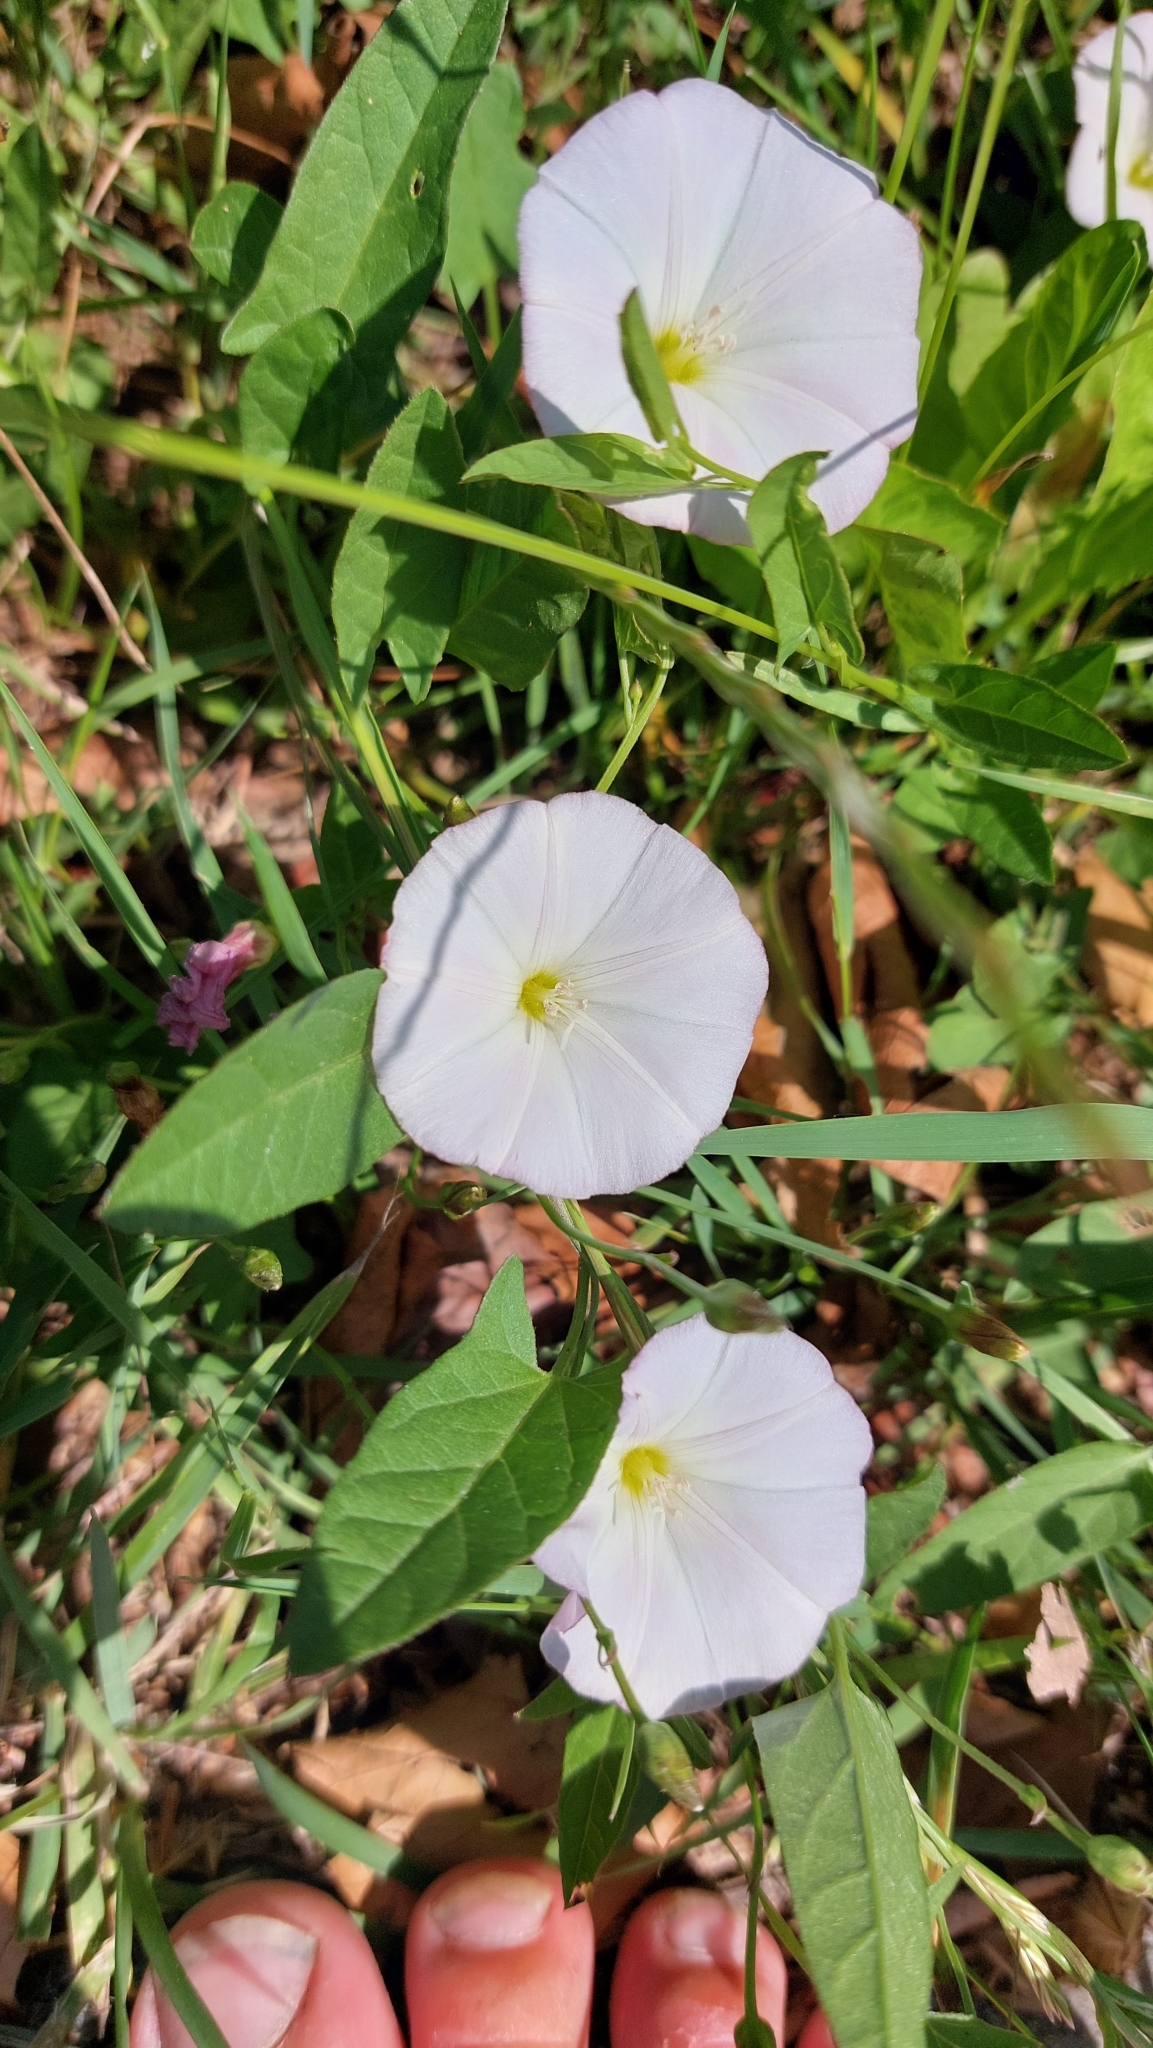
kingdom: Plantae
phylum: Tracheophyta
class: Magnoliopsida
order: Solanales
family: Convolvulaceae
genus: Convolvulus
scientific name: Convolvulus arvensis
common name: Field bindweed
